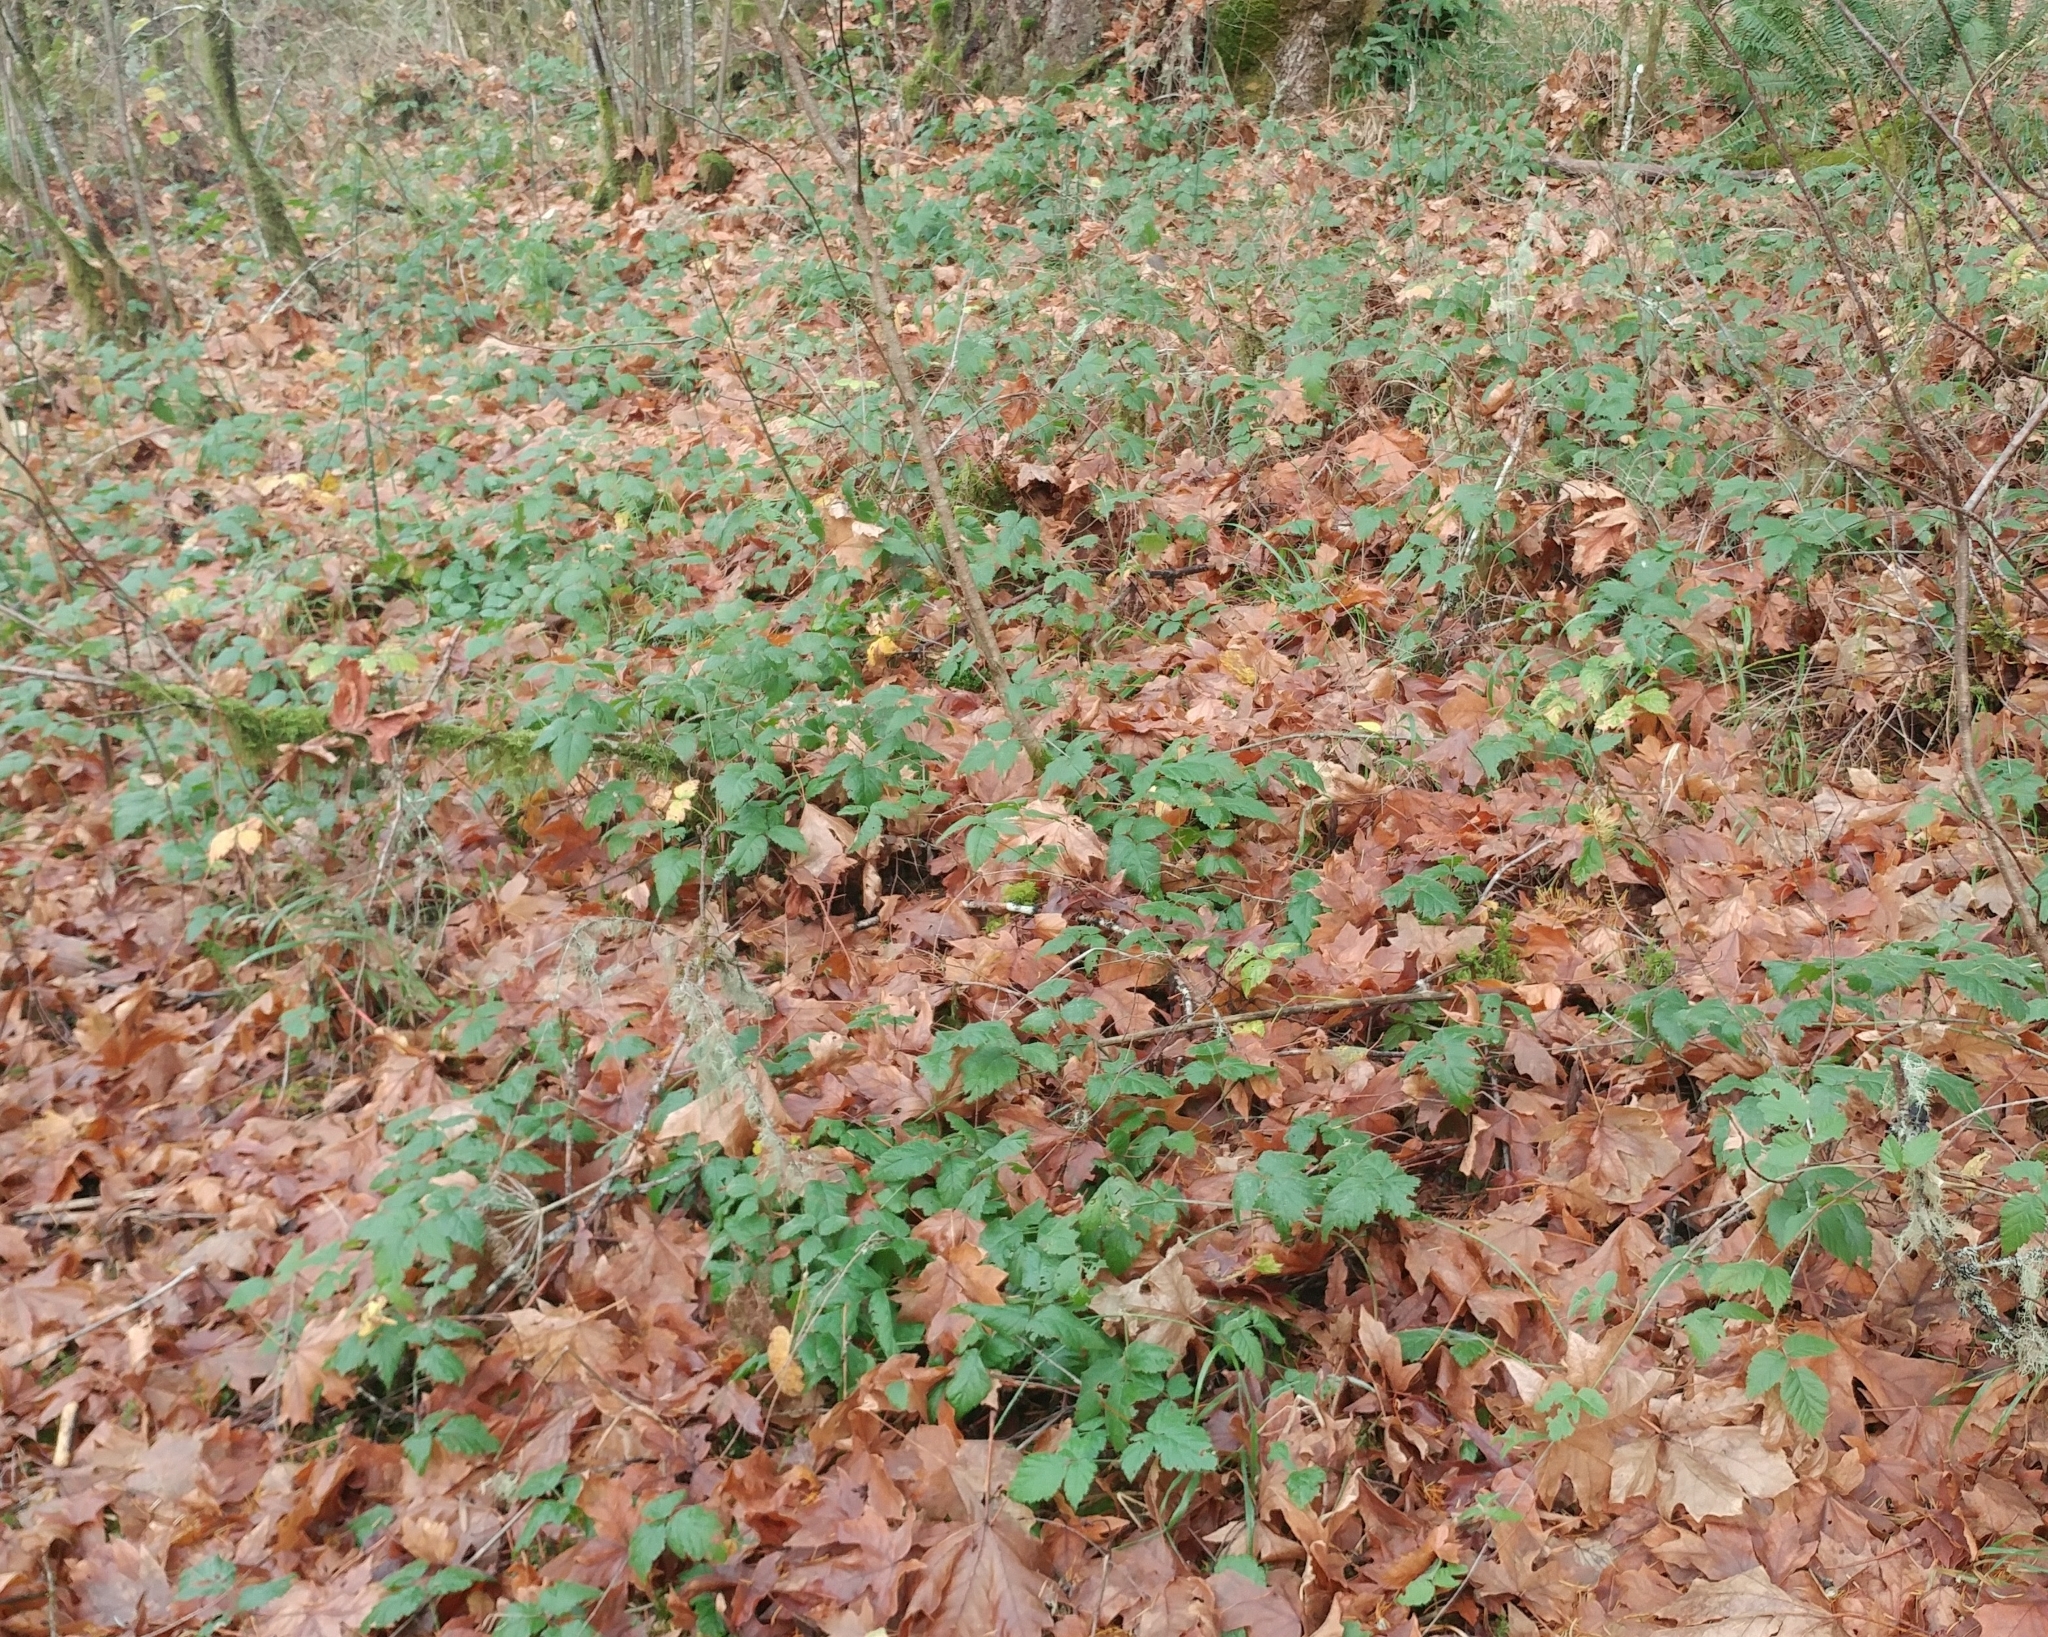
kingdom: Plantae
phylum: Tracheophyta
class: Magnoliopsida
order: Rosales
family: Rosaceae
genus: Rubus
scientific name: Rubus ursinus
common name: Pacific blackberry
